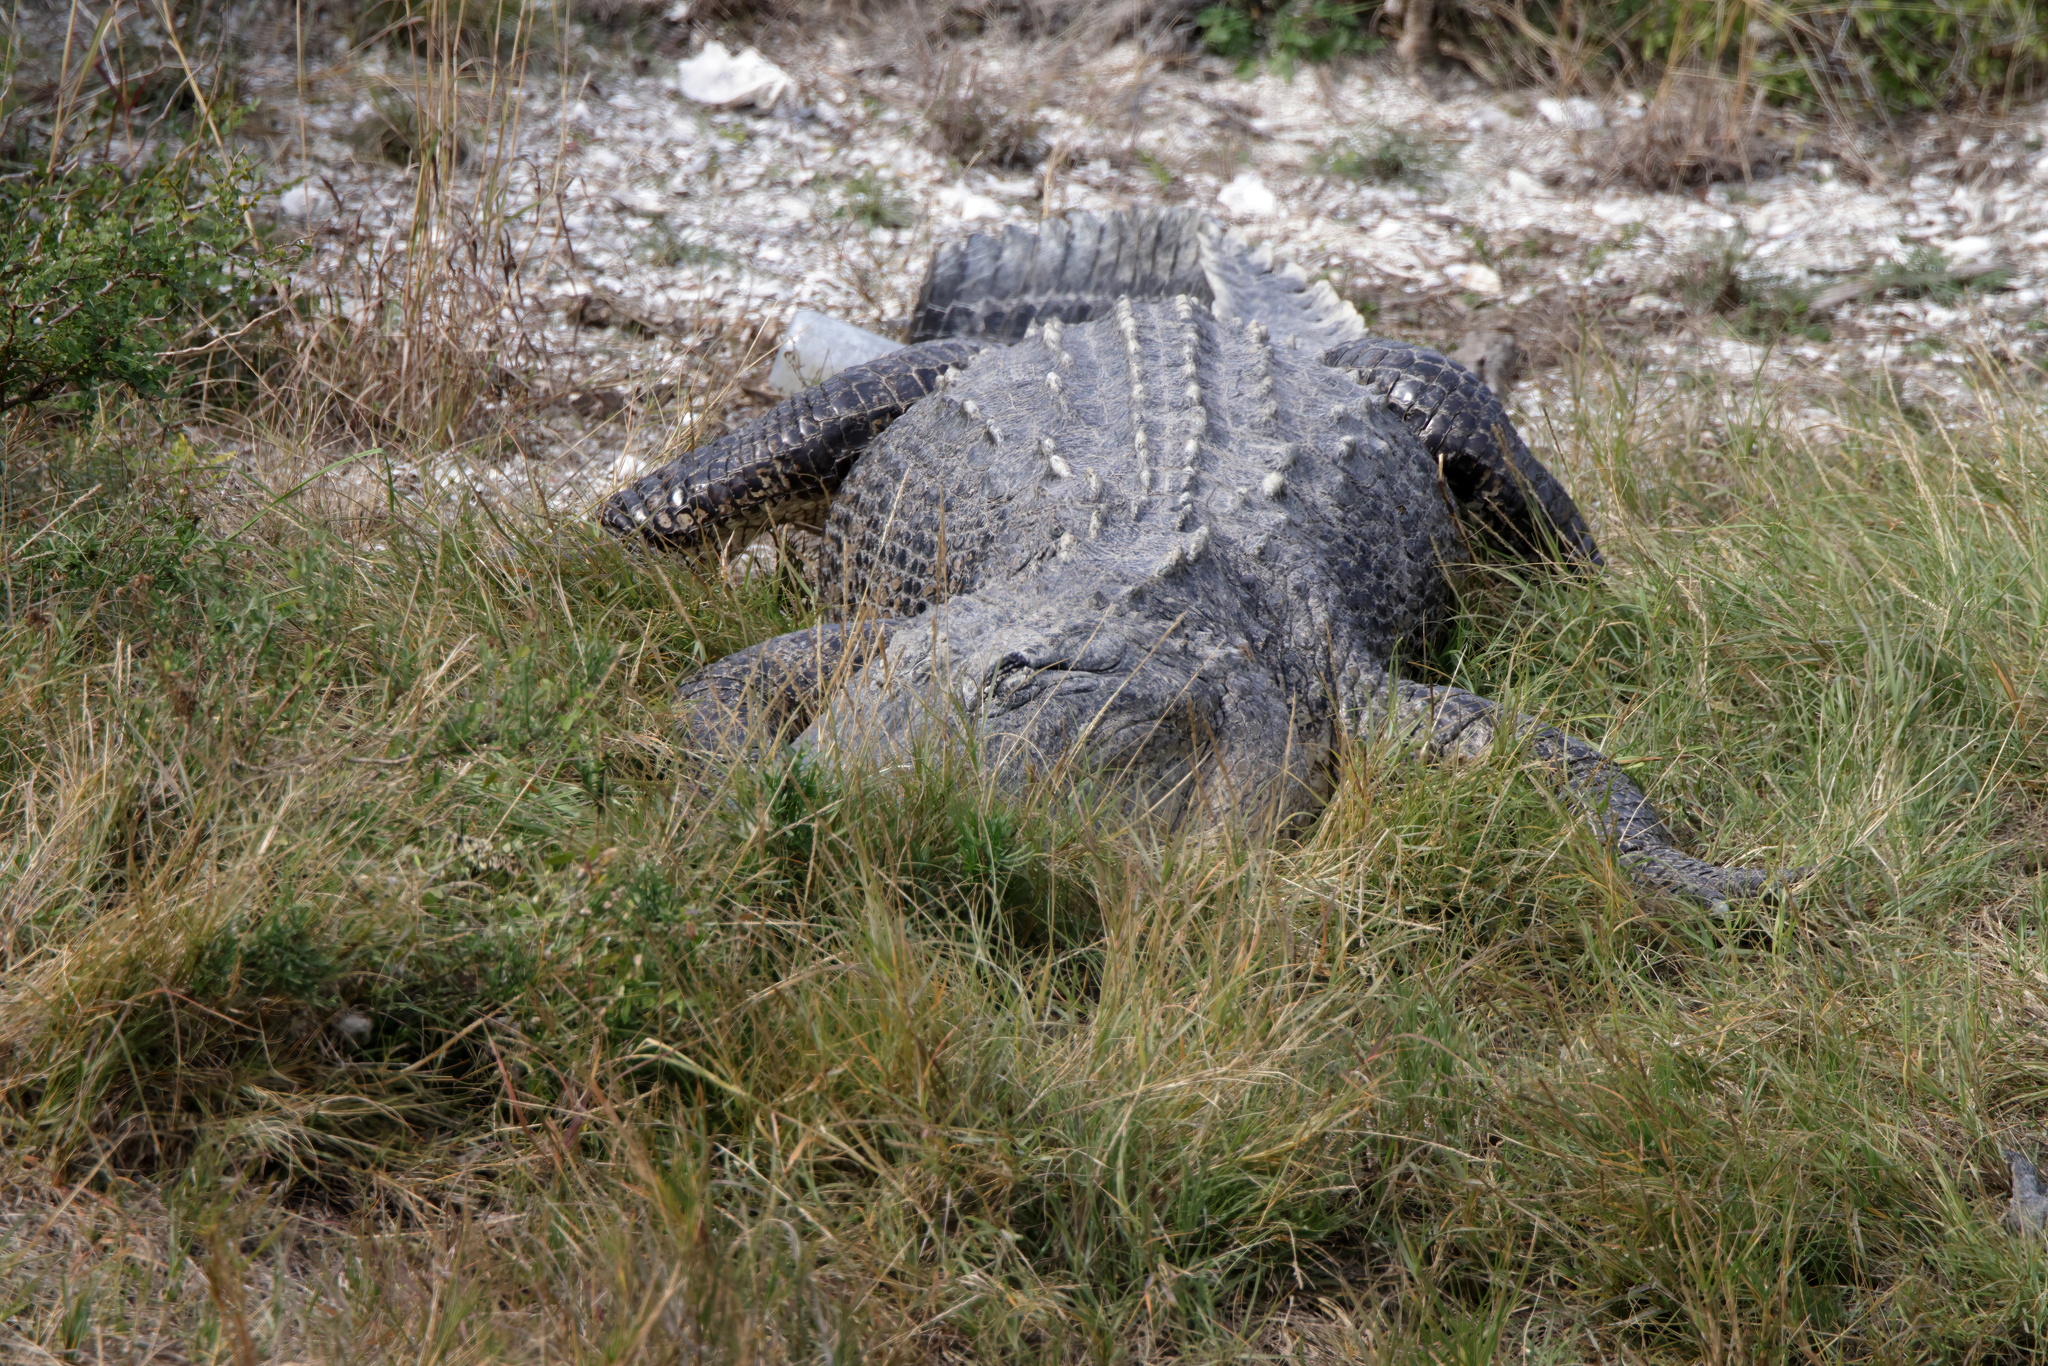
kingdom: Animalia
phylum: Chordata
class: Crocodylia
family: Alligatoridae
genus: Alligator
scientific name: Alligator mississippiensis
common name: American alligator
